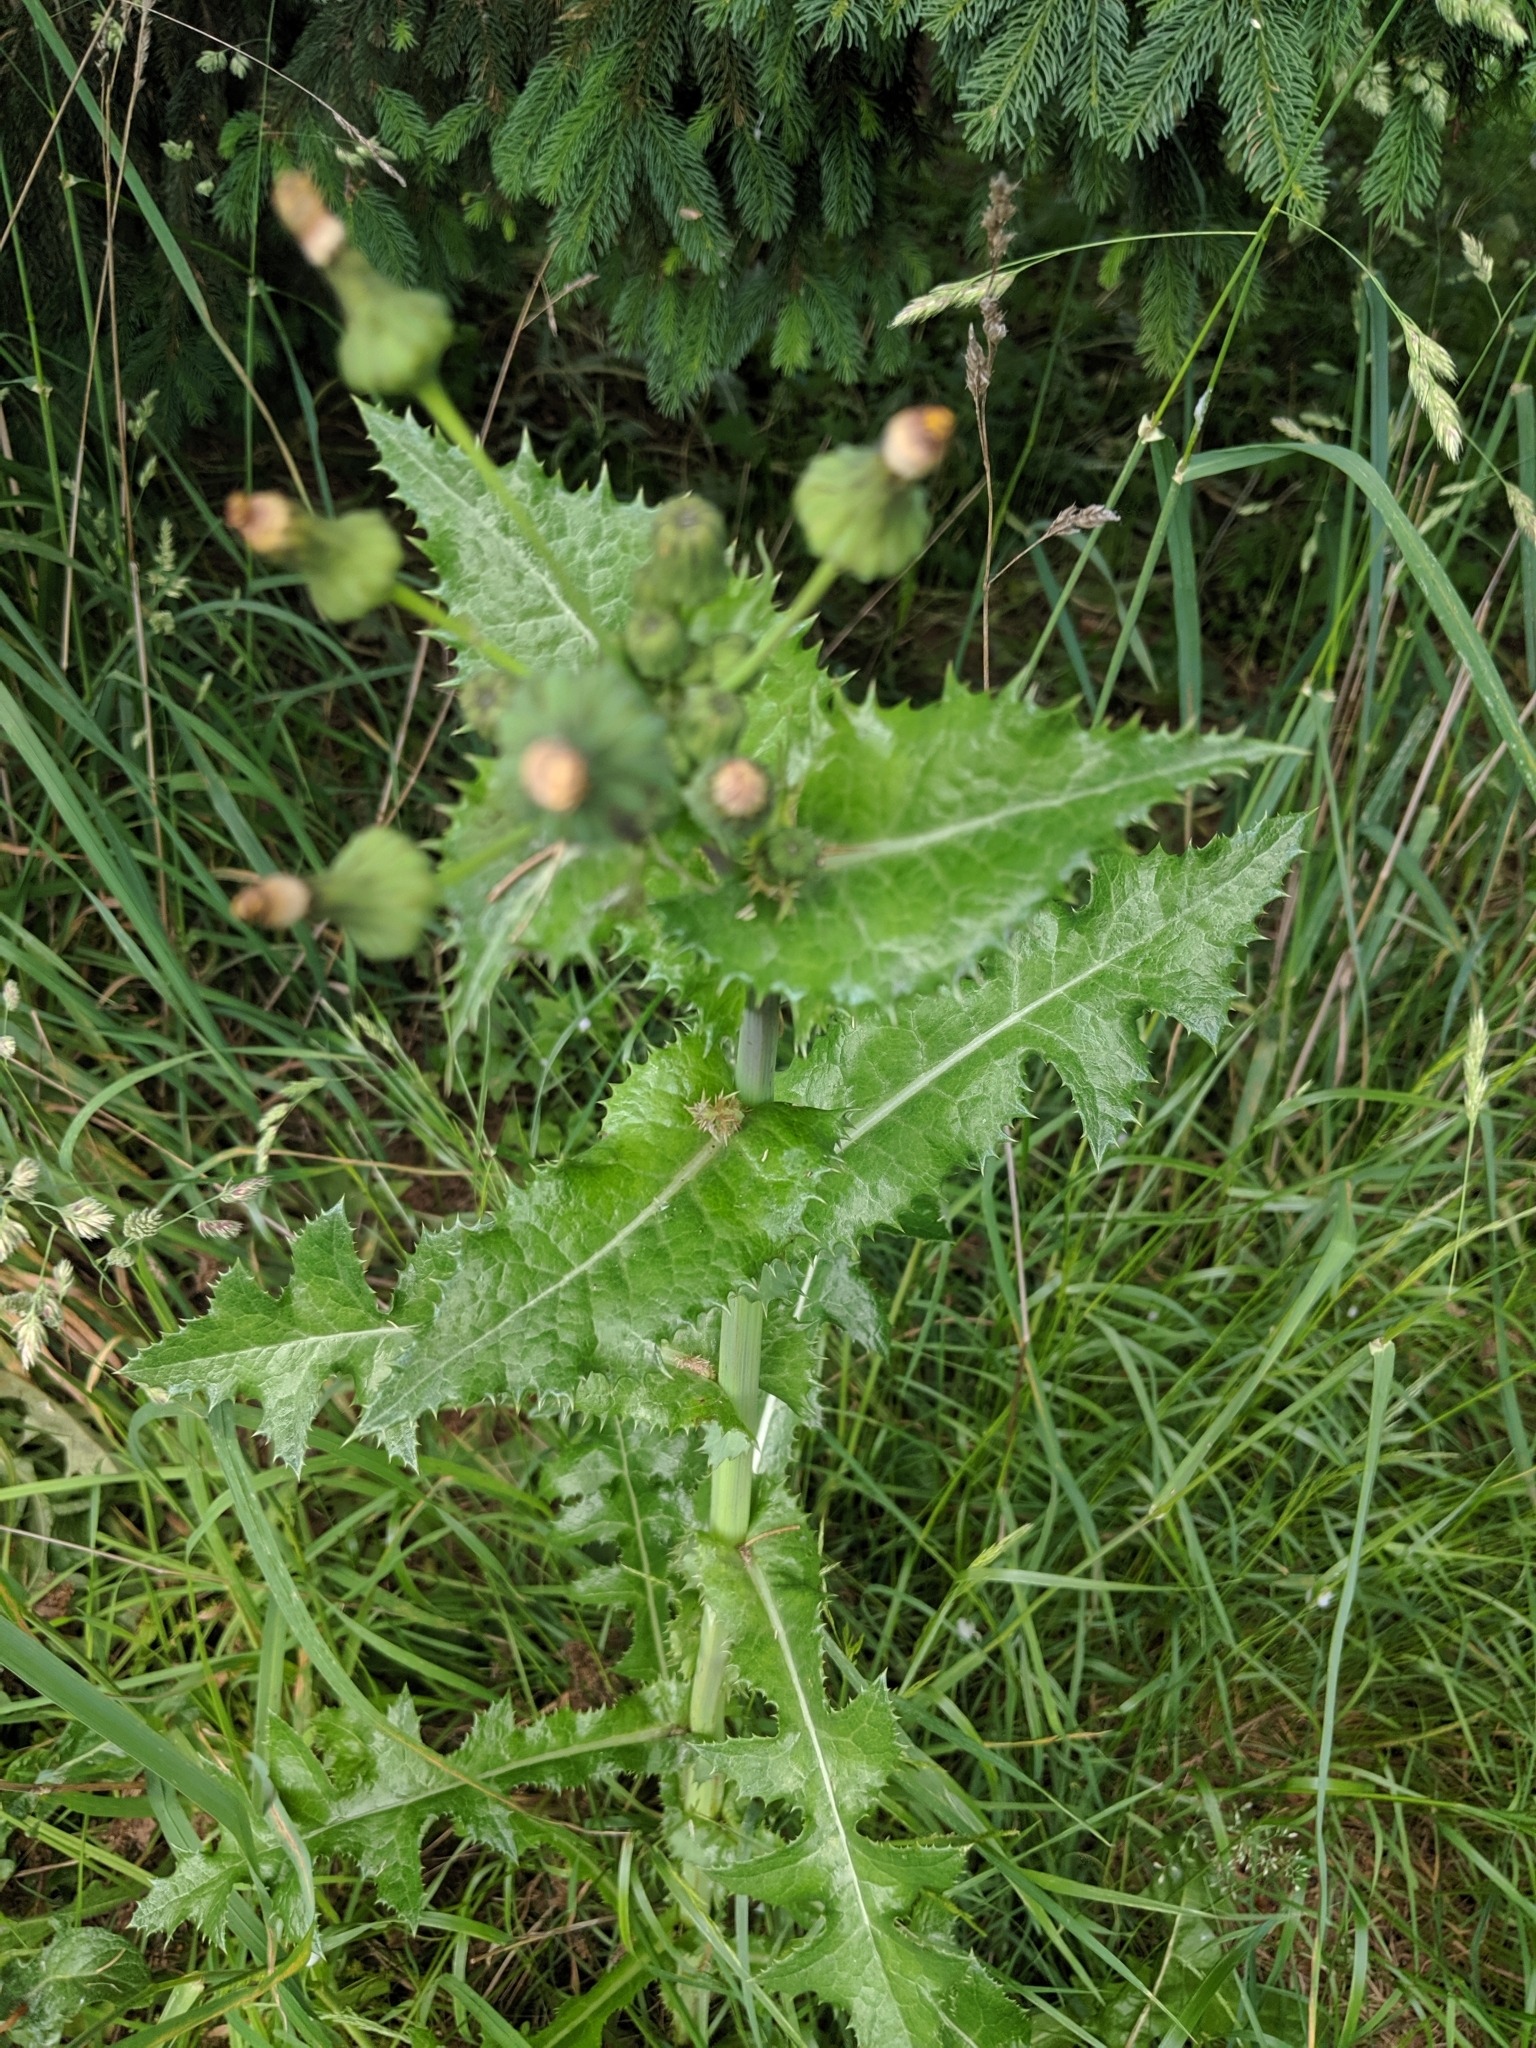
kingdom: Plantae
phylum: Tracheophyta
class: Magnoliopsida
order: Asterales
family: Asteraceae
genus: Sonchus
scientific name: Sonchus asper
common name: Prickly sow-thistle
